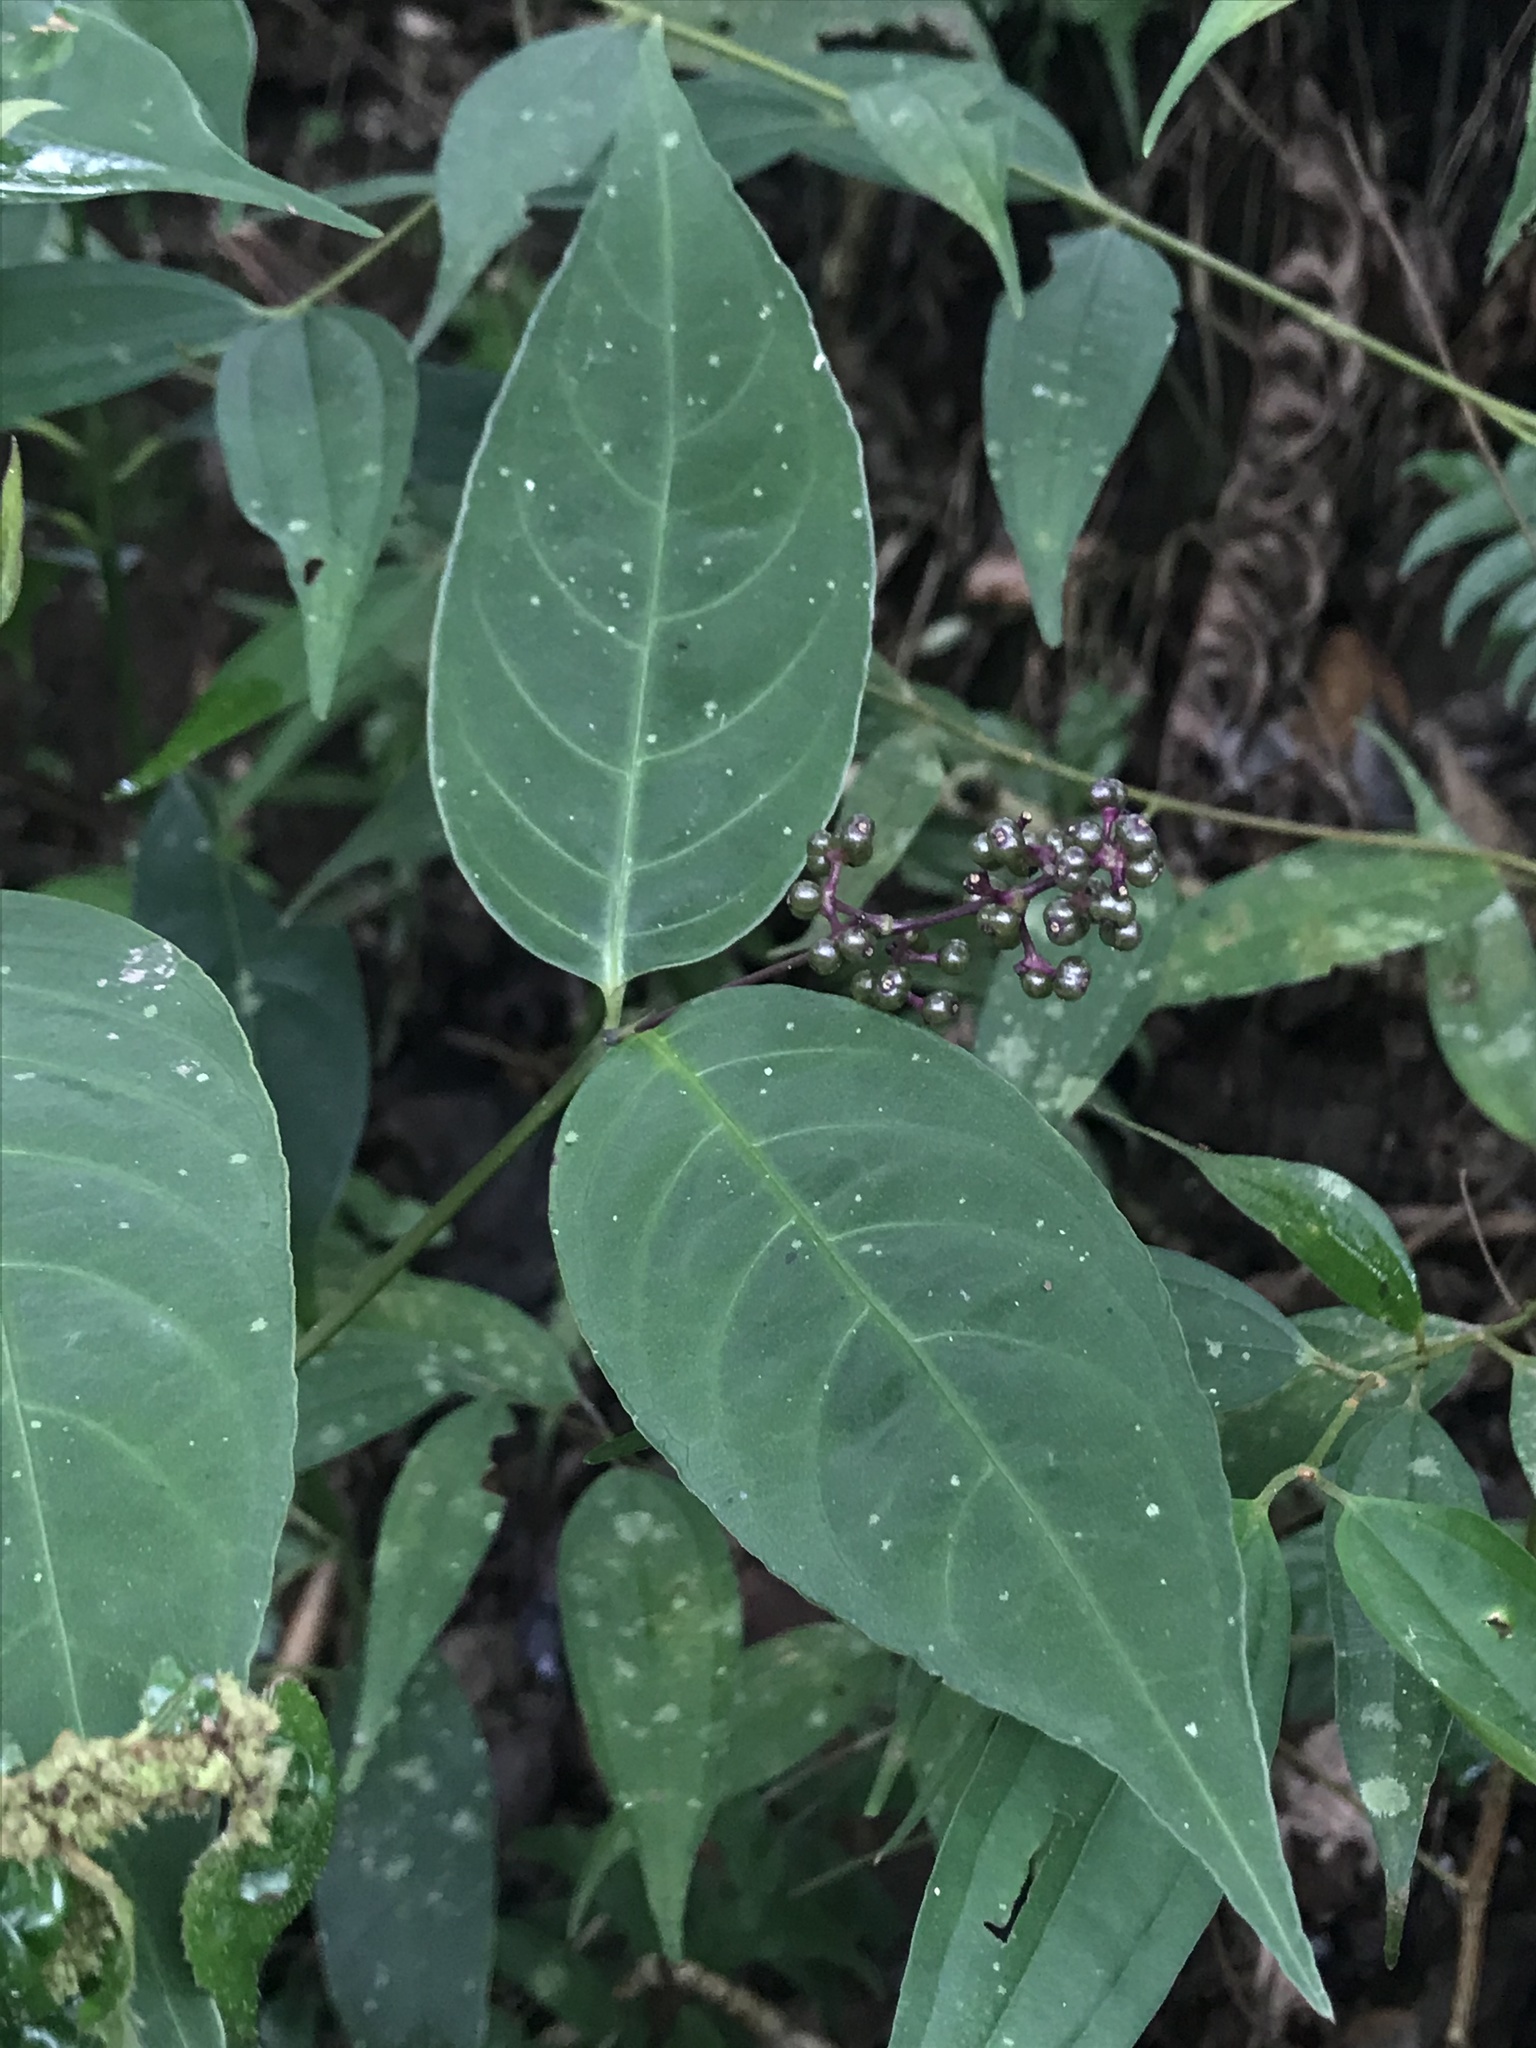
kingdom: Plantae
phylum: Tracheophyta
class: Magnoliopsida
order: Gentianales
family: Rubiaceae
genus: Palicourea
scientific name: Palicourea deflexa
